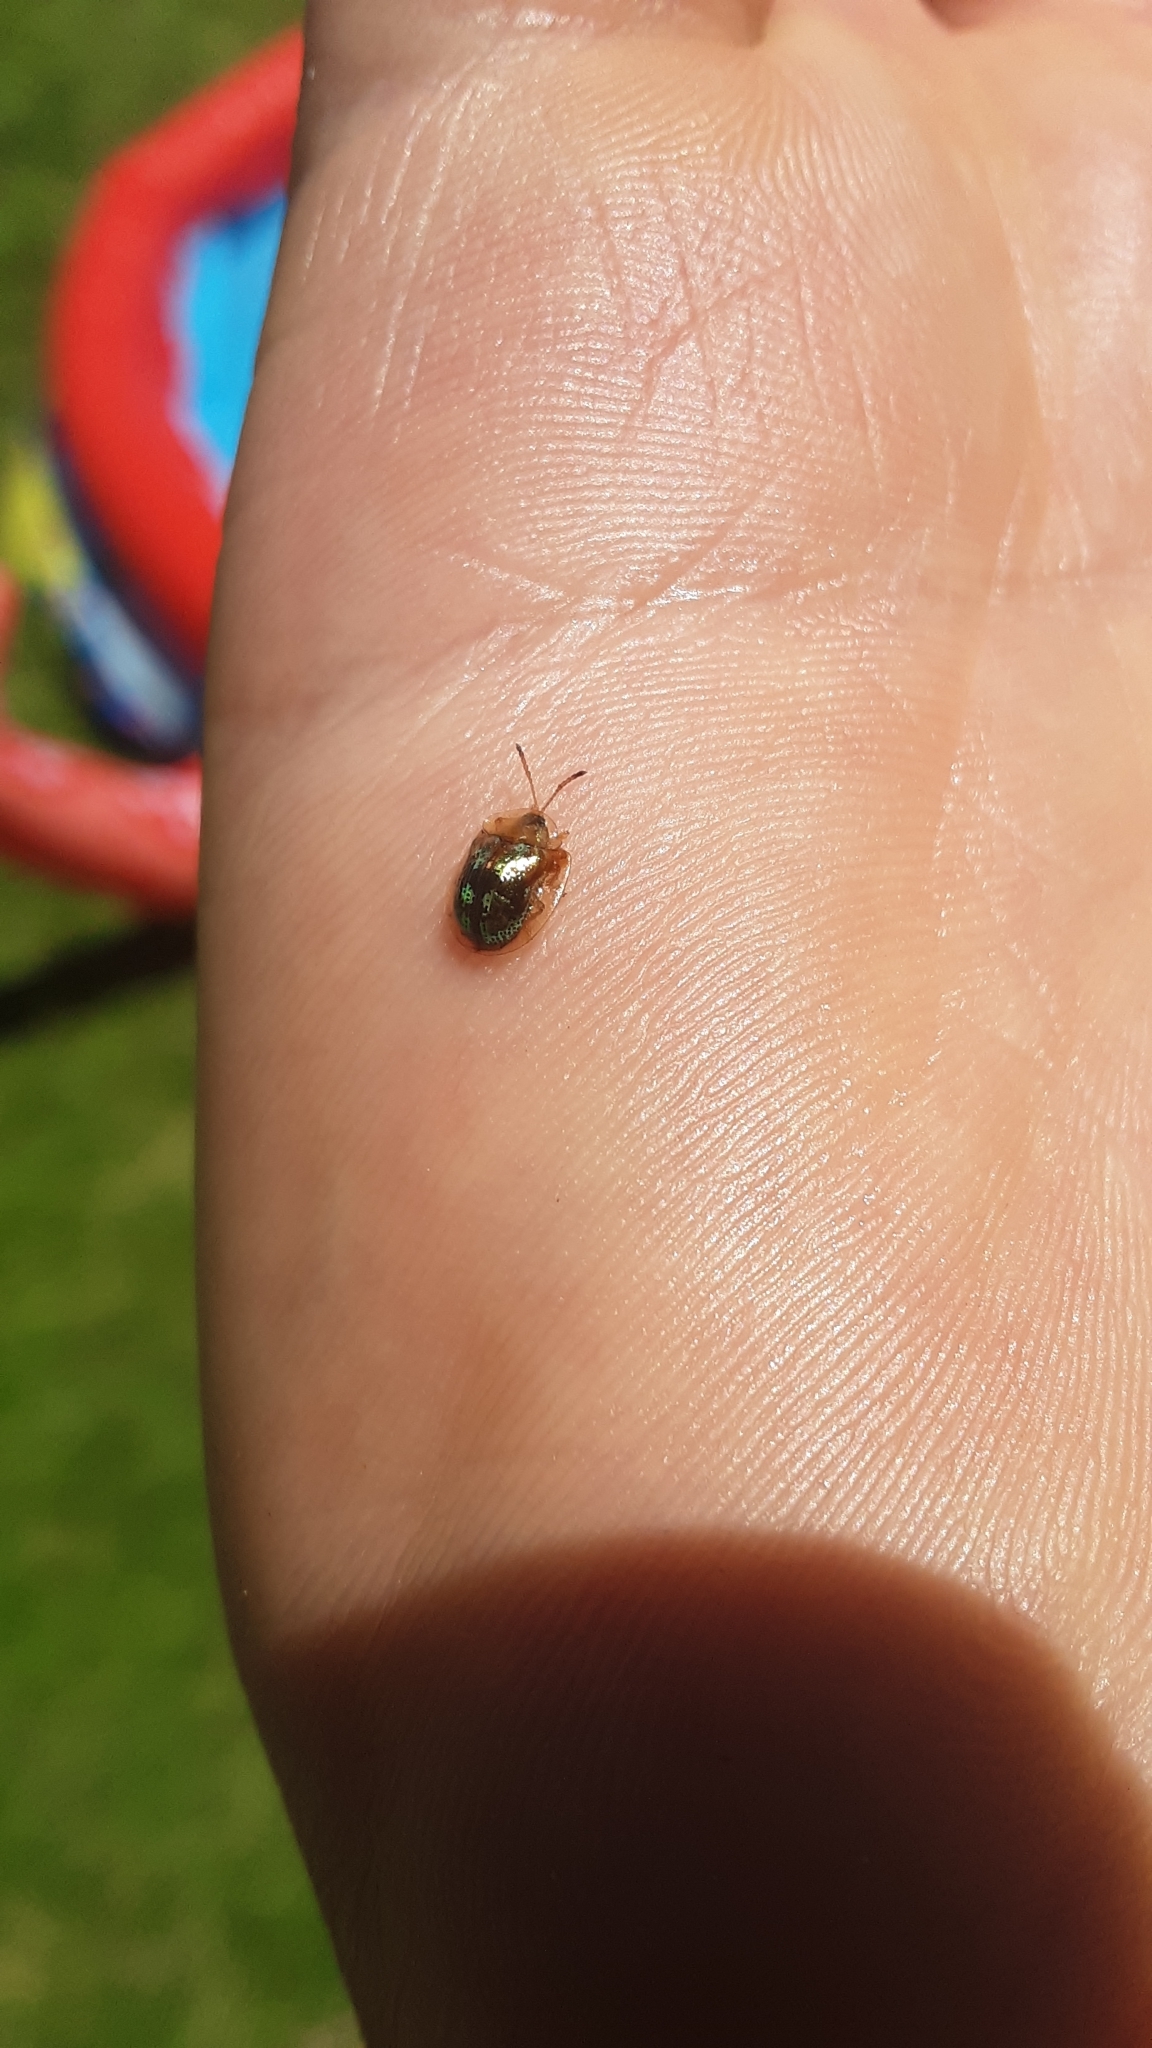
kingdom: Animalia
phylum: Arthropoda
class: Insecta
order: Coleoptera
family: Chrysomelidae
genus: Deloyala
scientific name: Deloyala guttata
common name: Mottled tortoise beetle
